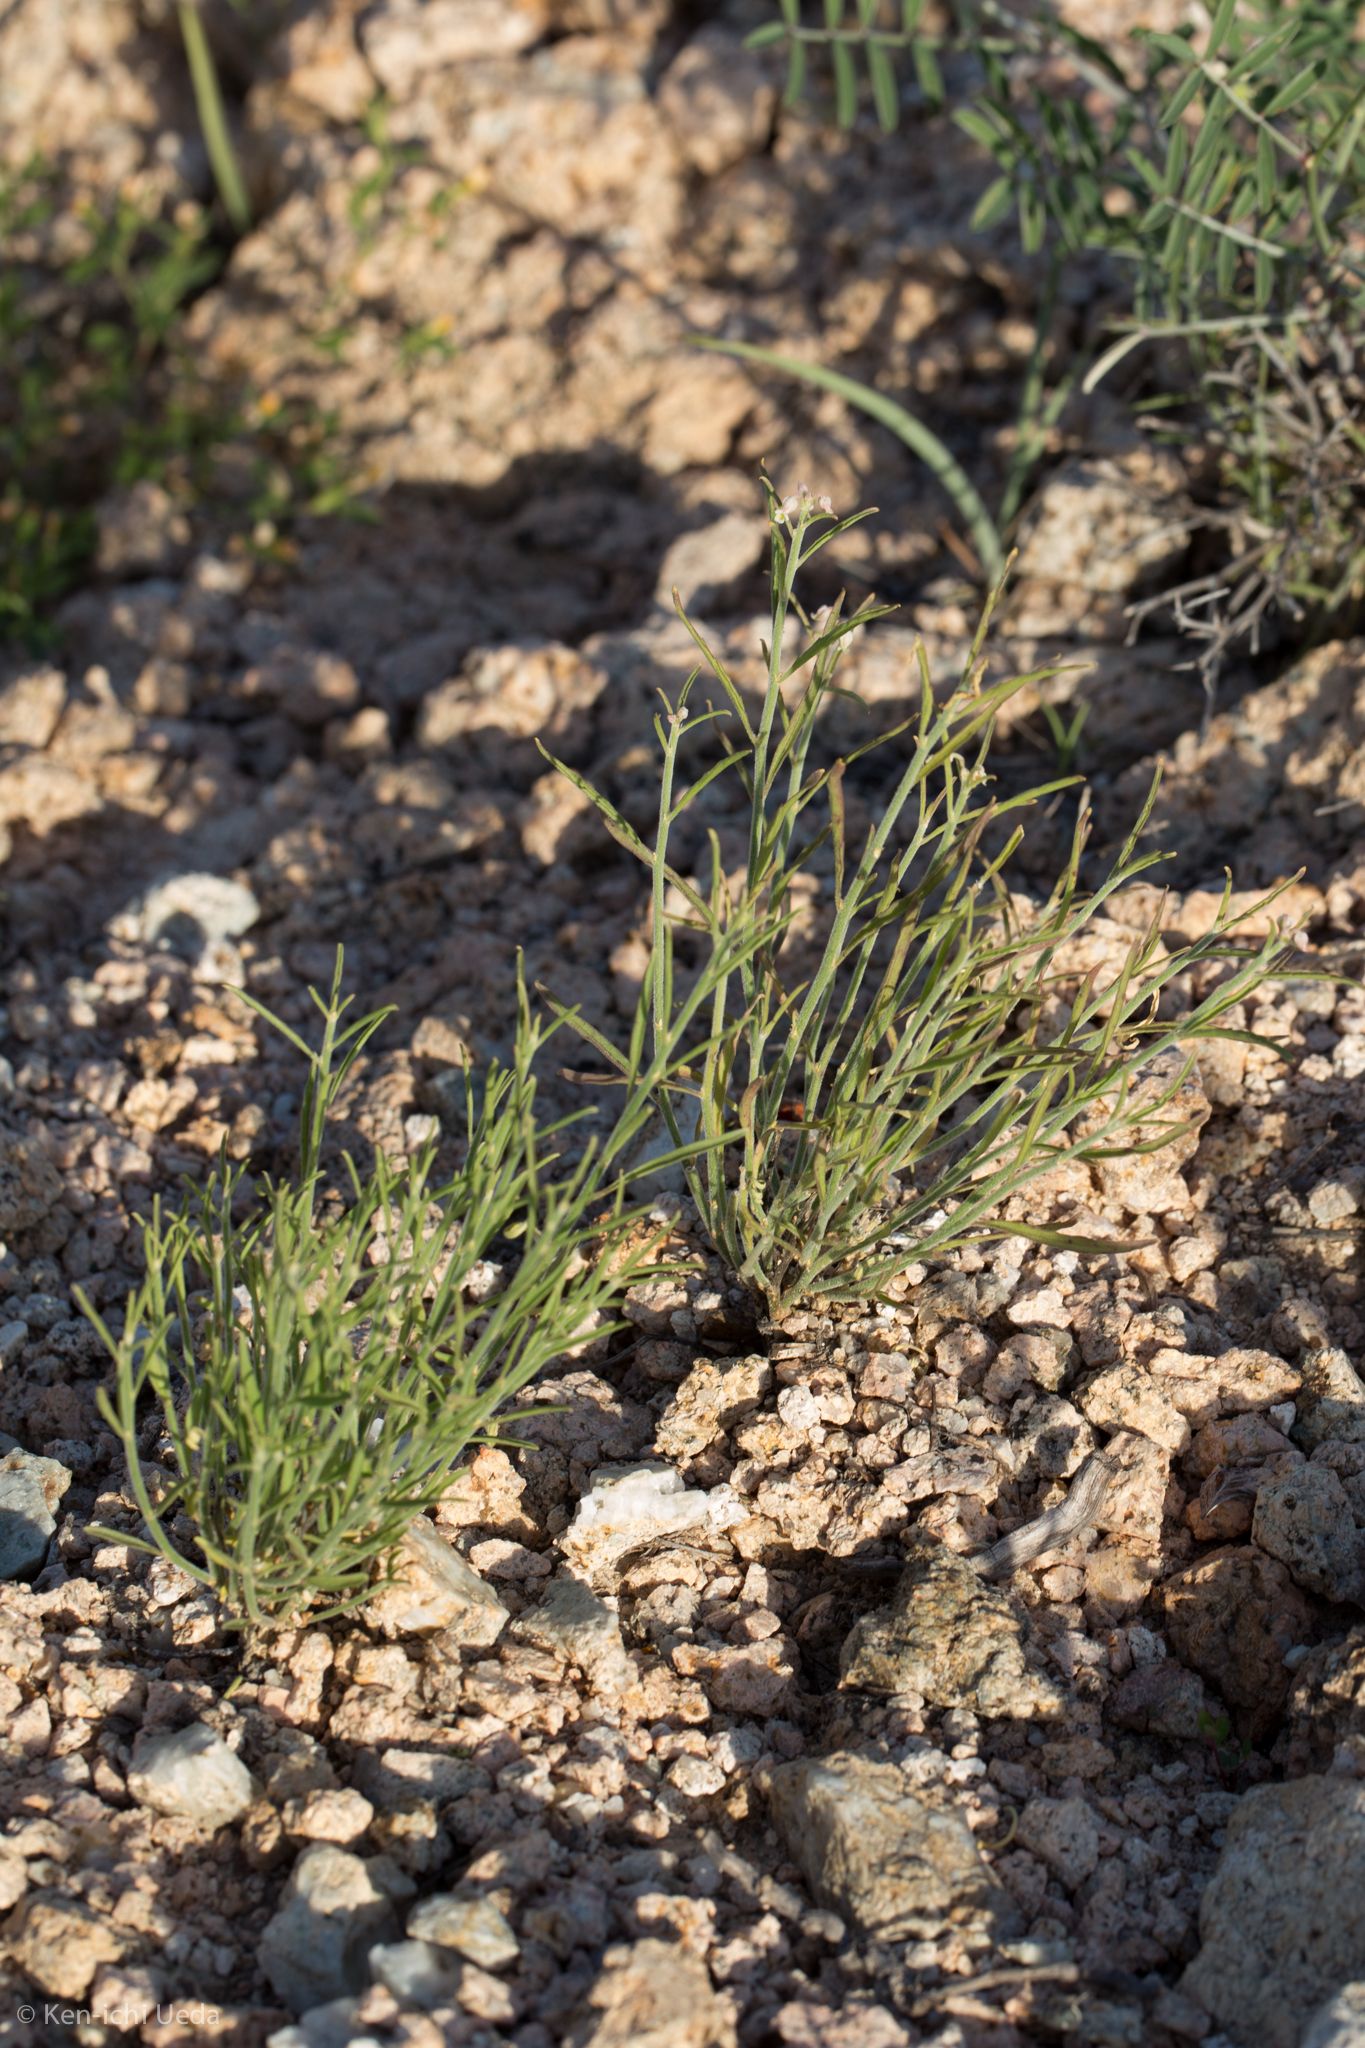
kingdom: Plantae
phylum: Tracheophyta
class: Magnoliopsida
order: Malpighiales
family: Violaceae
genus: Hybanthus
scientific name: Hybanthus fruticulosus
